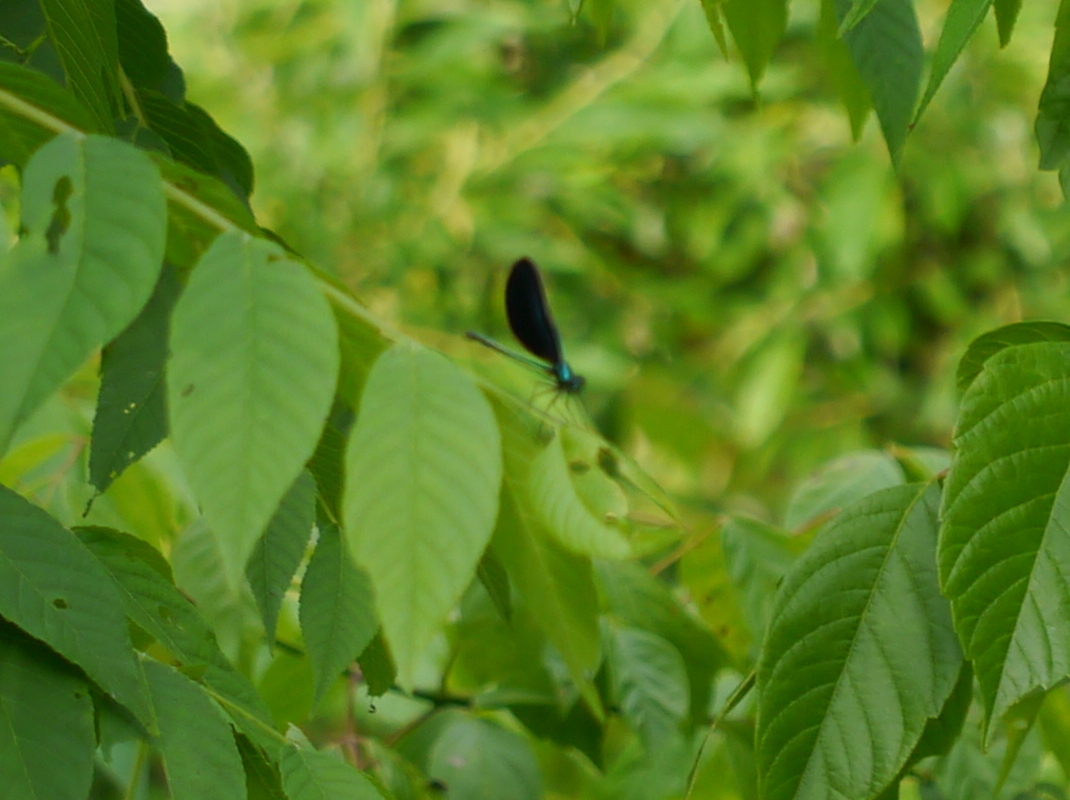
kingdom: Animalia
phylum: Arthropoda
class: Insecta
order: Odonata
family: Calopterygidae
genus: Calopteryx
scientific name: Calopteryx maculata
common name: Ebony jewelwing
